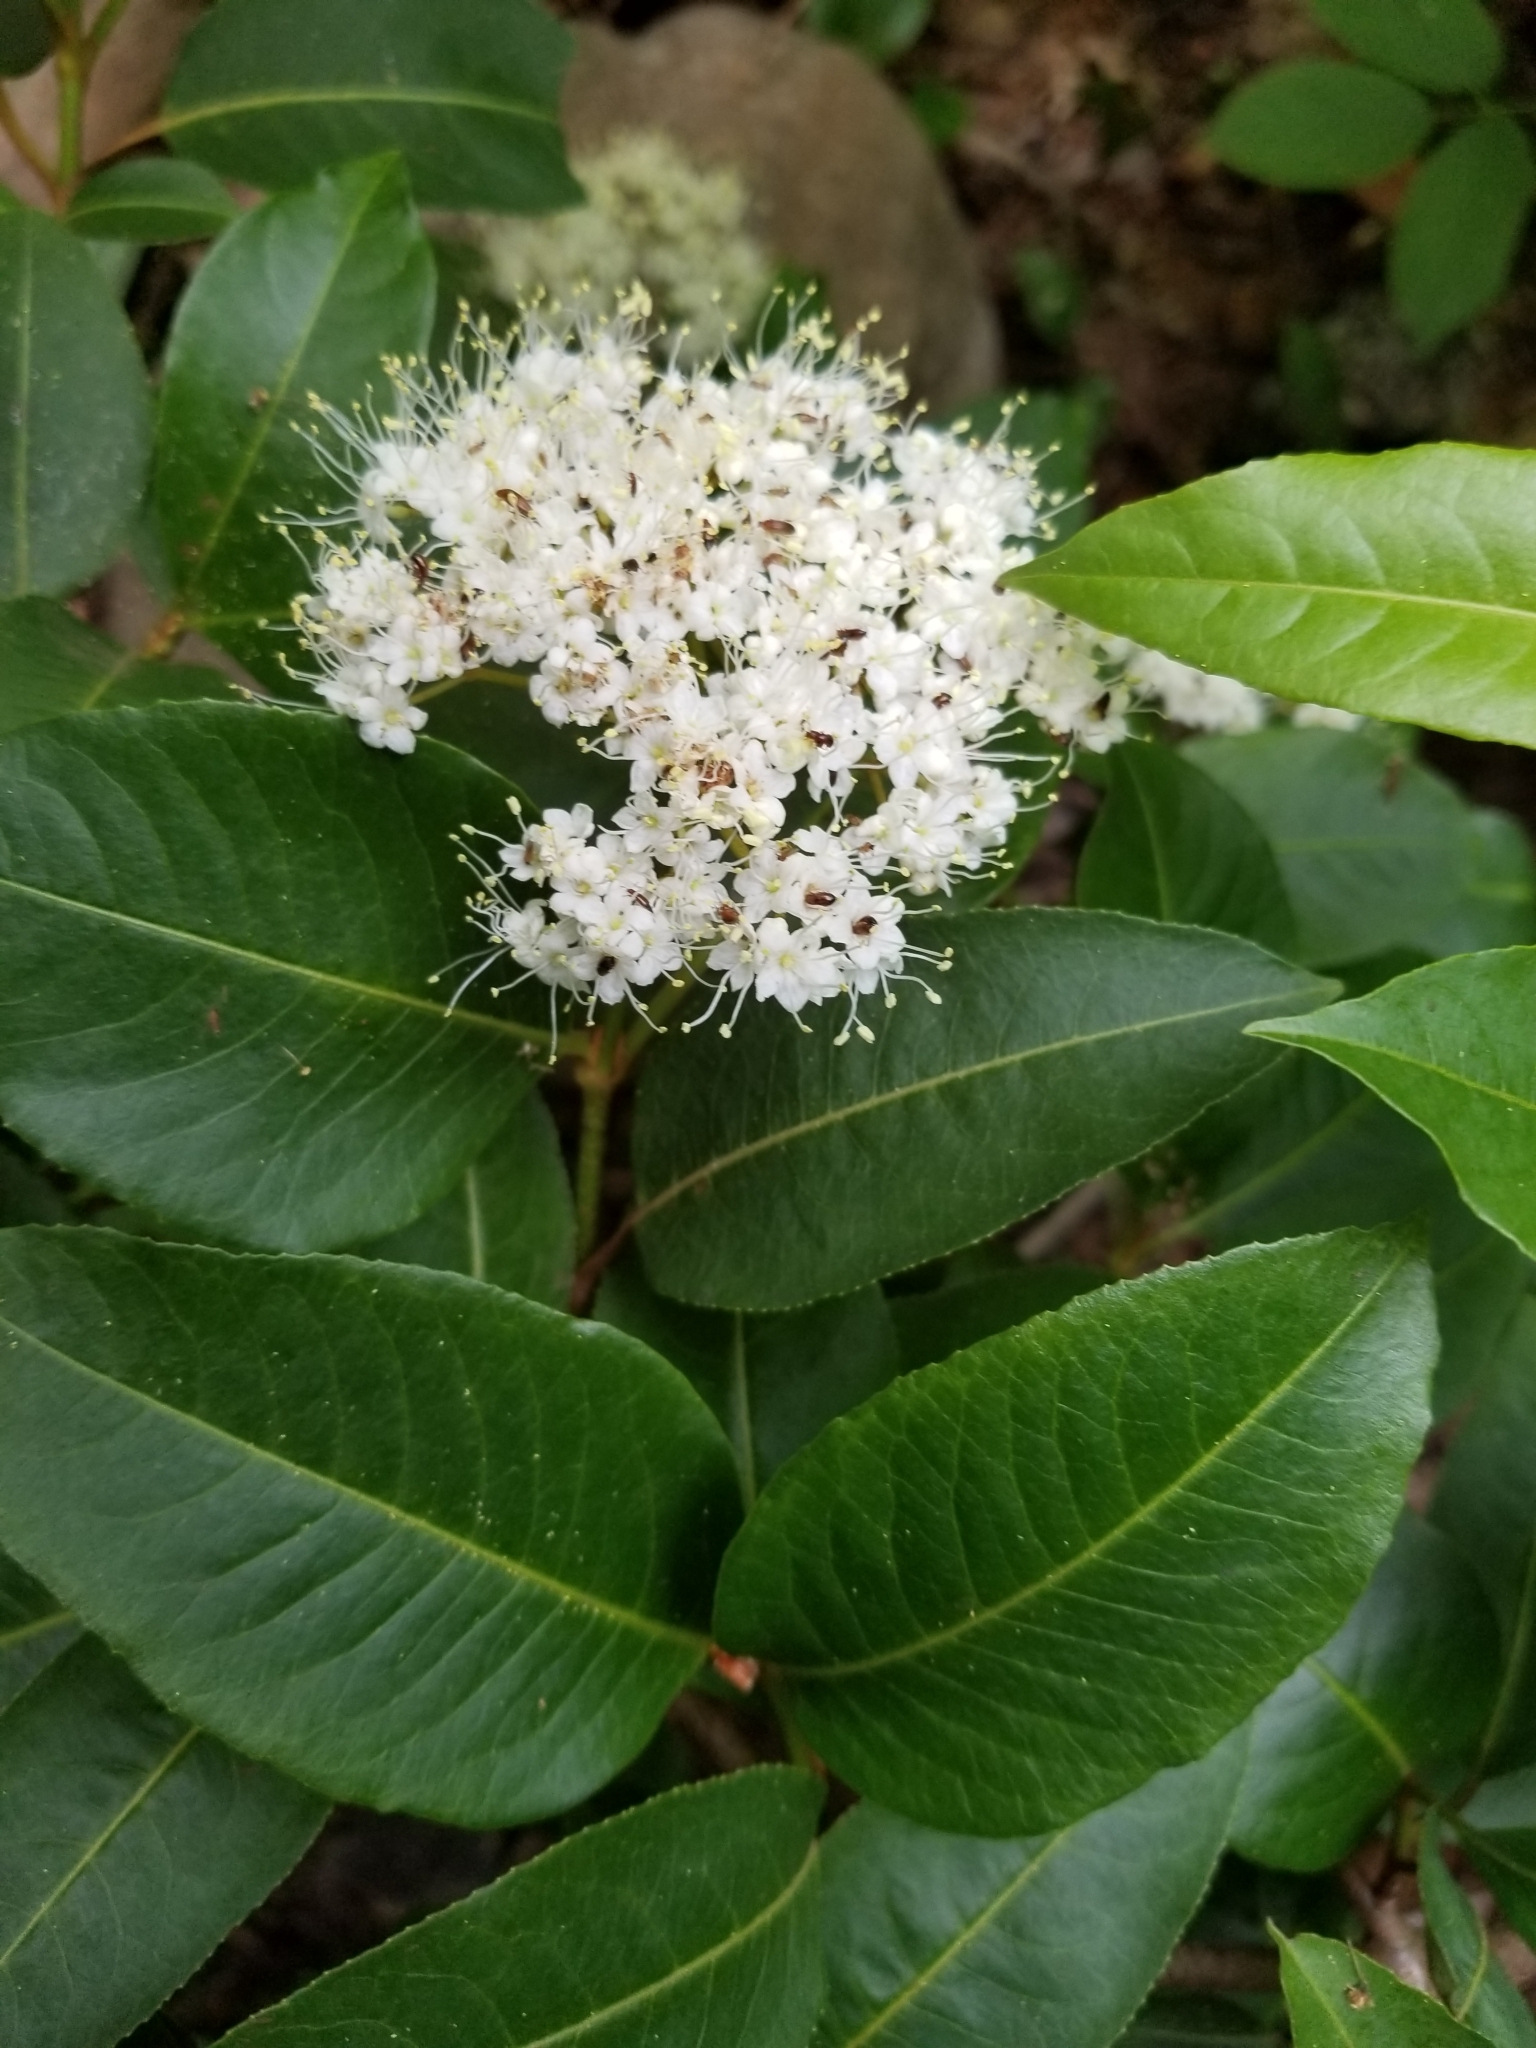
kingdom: Plantae
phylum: Tracheophyta
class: Magnoliopsida
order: Dipsacales
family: Viburnaceae
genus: Viburnum
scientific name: Viburnum cassinoides
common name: Swamp haw
